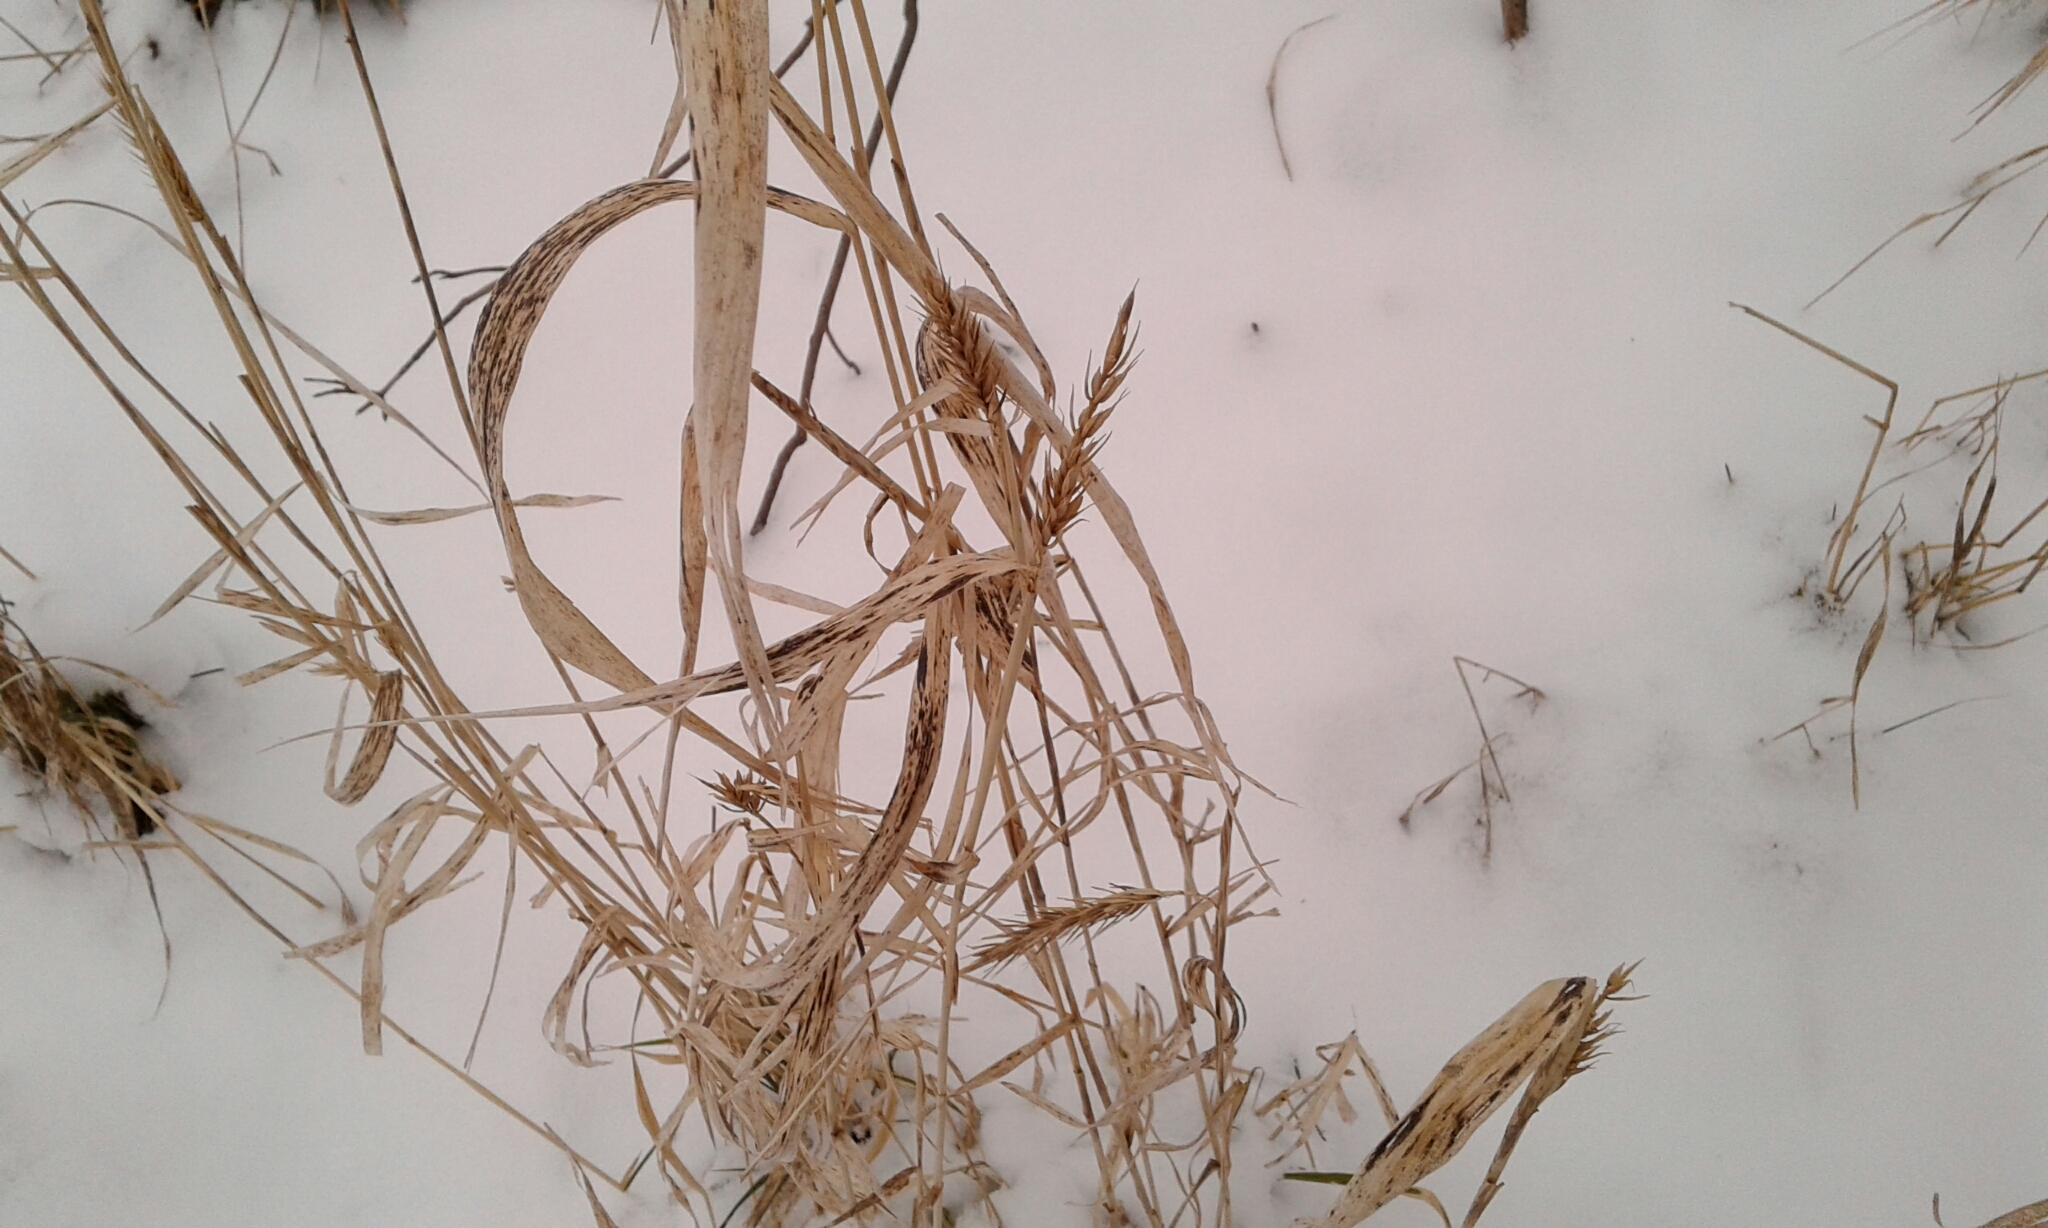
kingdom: Plantae
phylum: Tracheophyta
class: Liliopsida
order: Poales
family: Poaceae
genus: Elymus
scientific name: Elymus virginicus
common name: Common eastern wildrye
